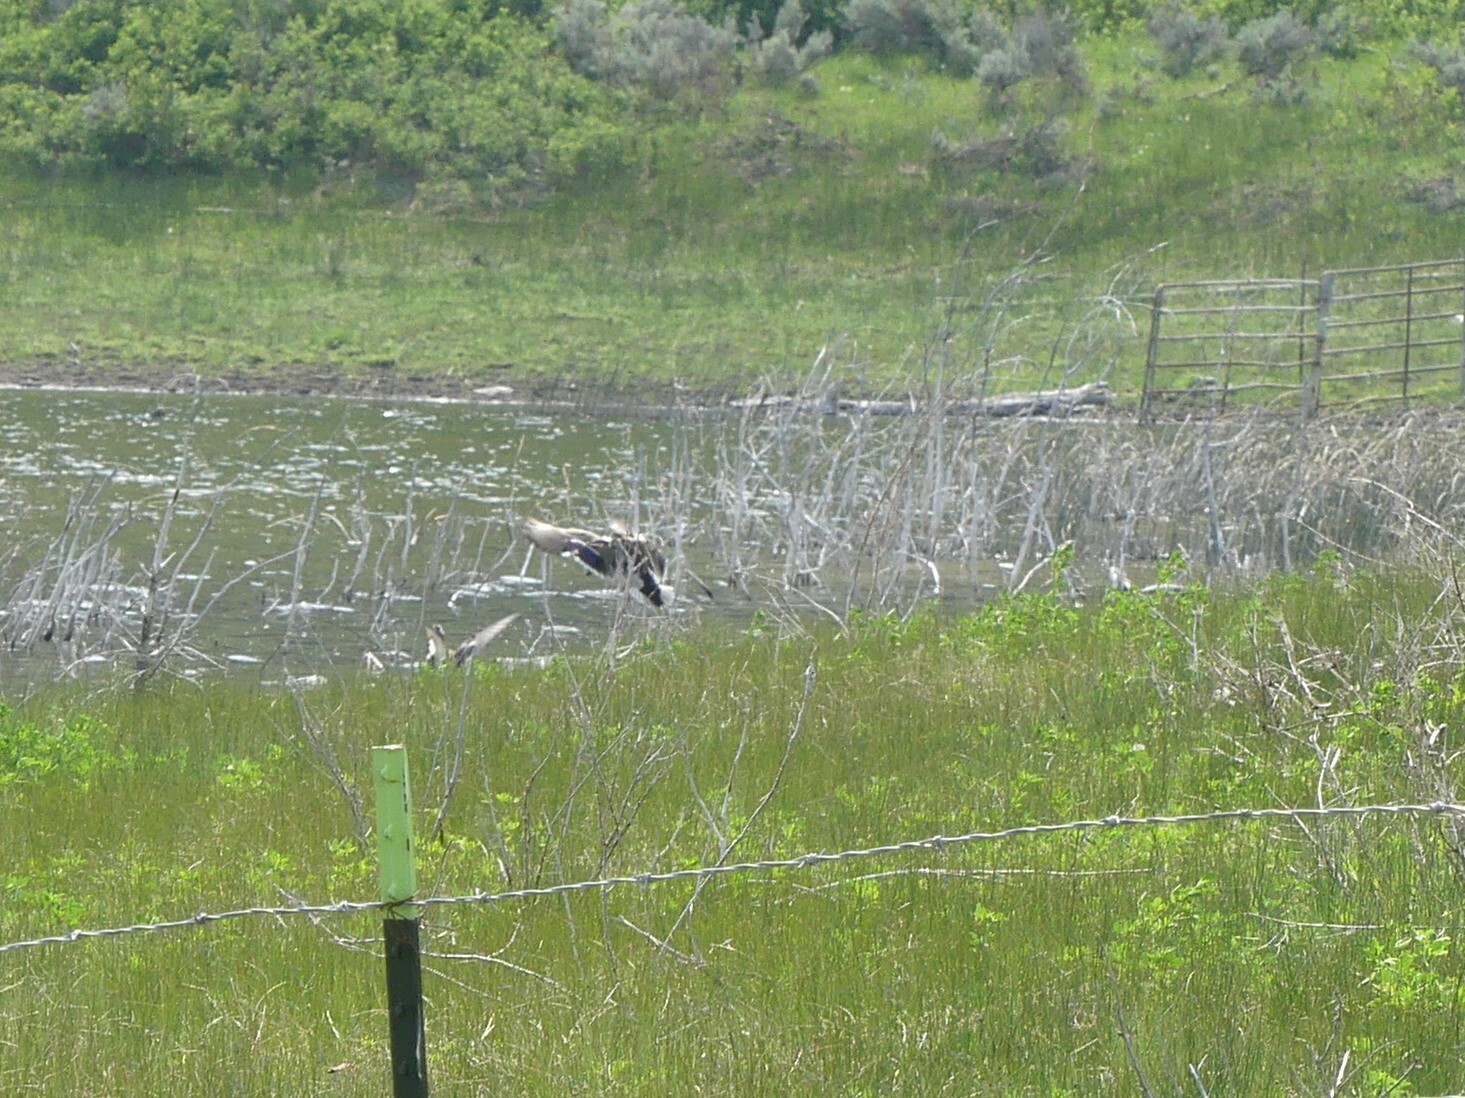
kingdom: Animalia
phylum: Chordata
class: Aves
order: Anseriformes
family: Anatidae
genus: Anas
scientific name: Anas platyrhynchos
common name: Mallard
